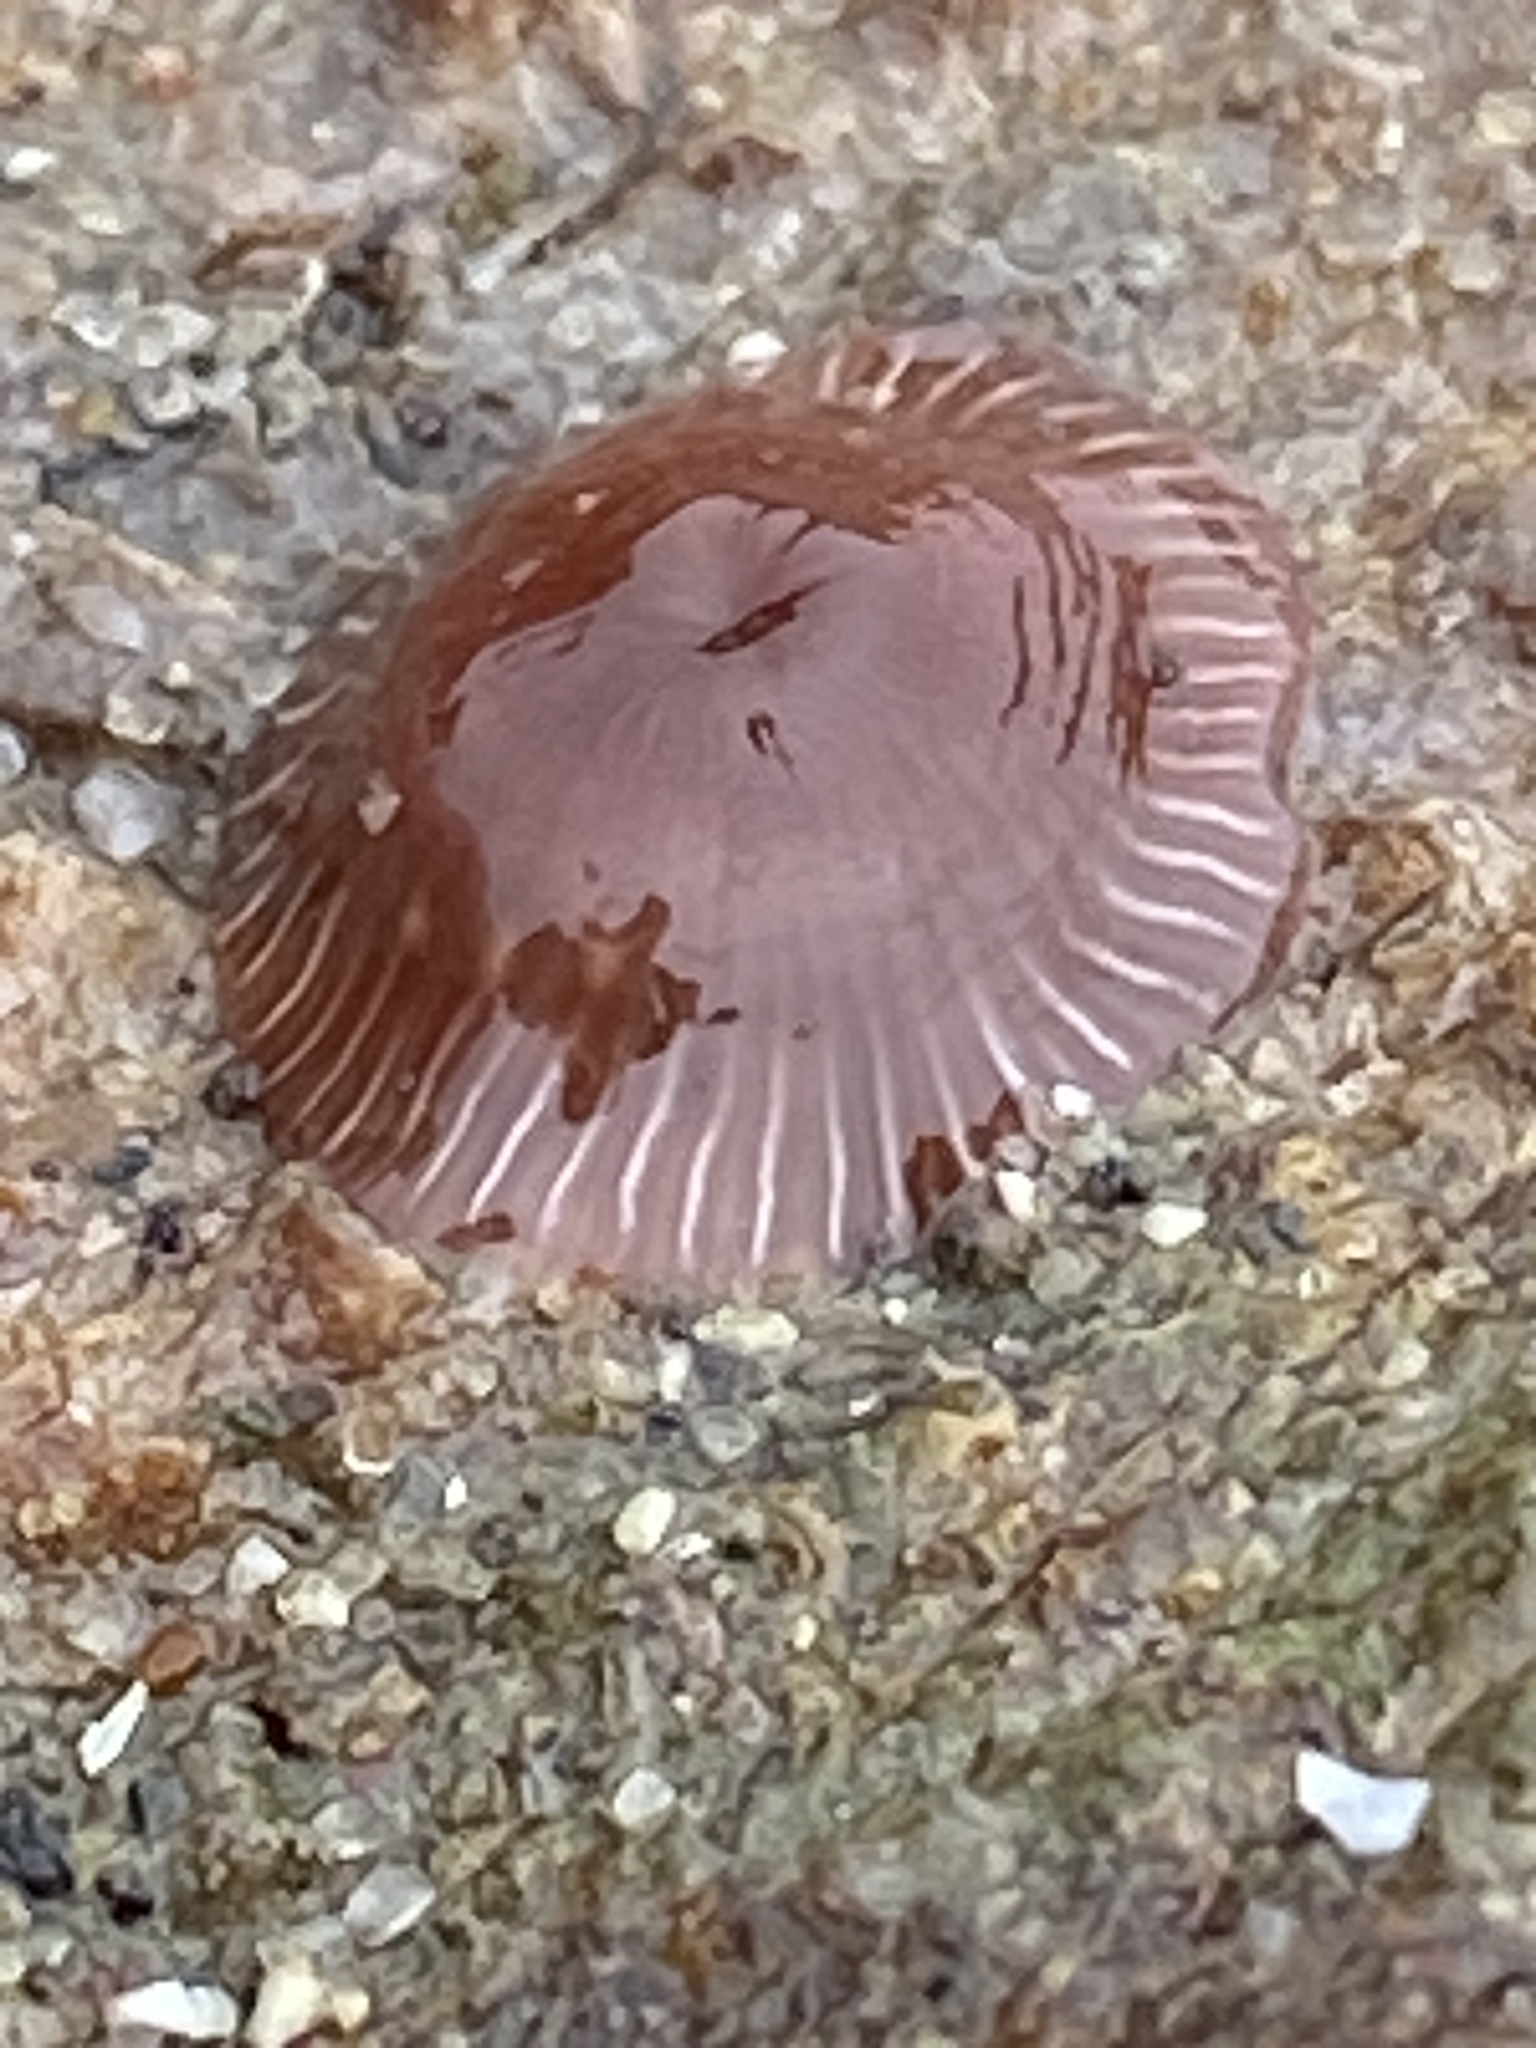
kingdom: Animalia
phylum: Cnidaria
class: Anthozoa
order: Actiniaria
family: Actiniidae
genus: Epiactis
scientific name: Epiactis prolifera
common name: Brooding anemone
